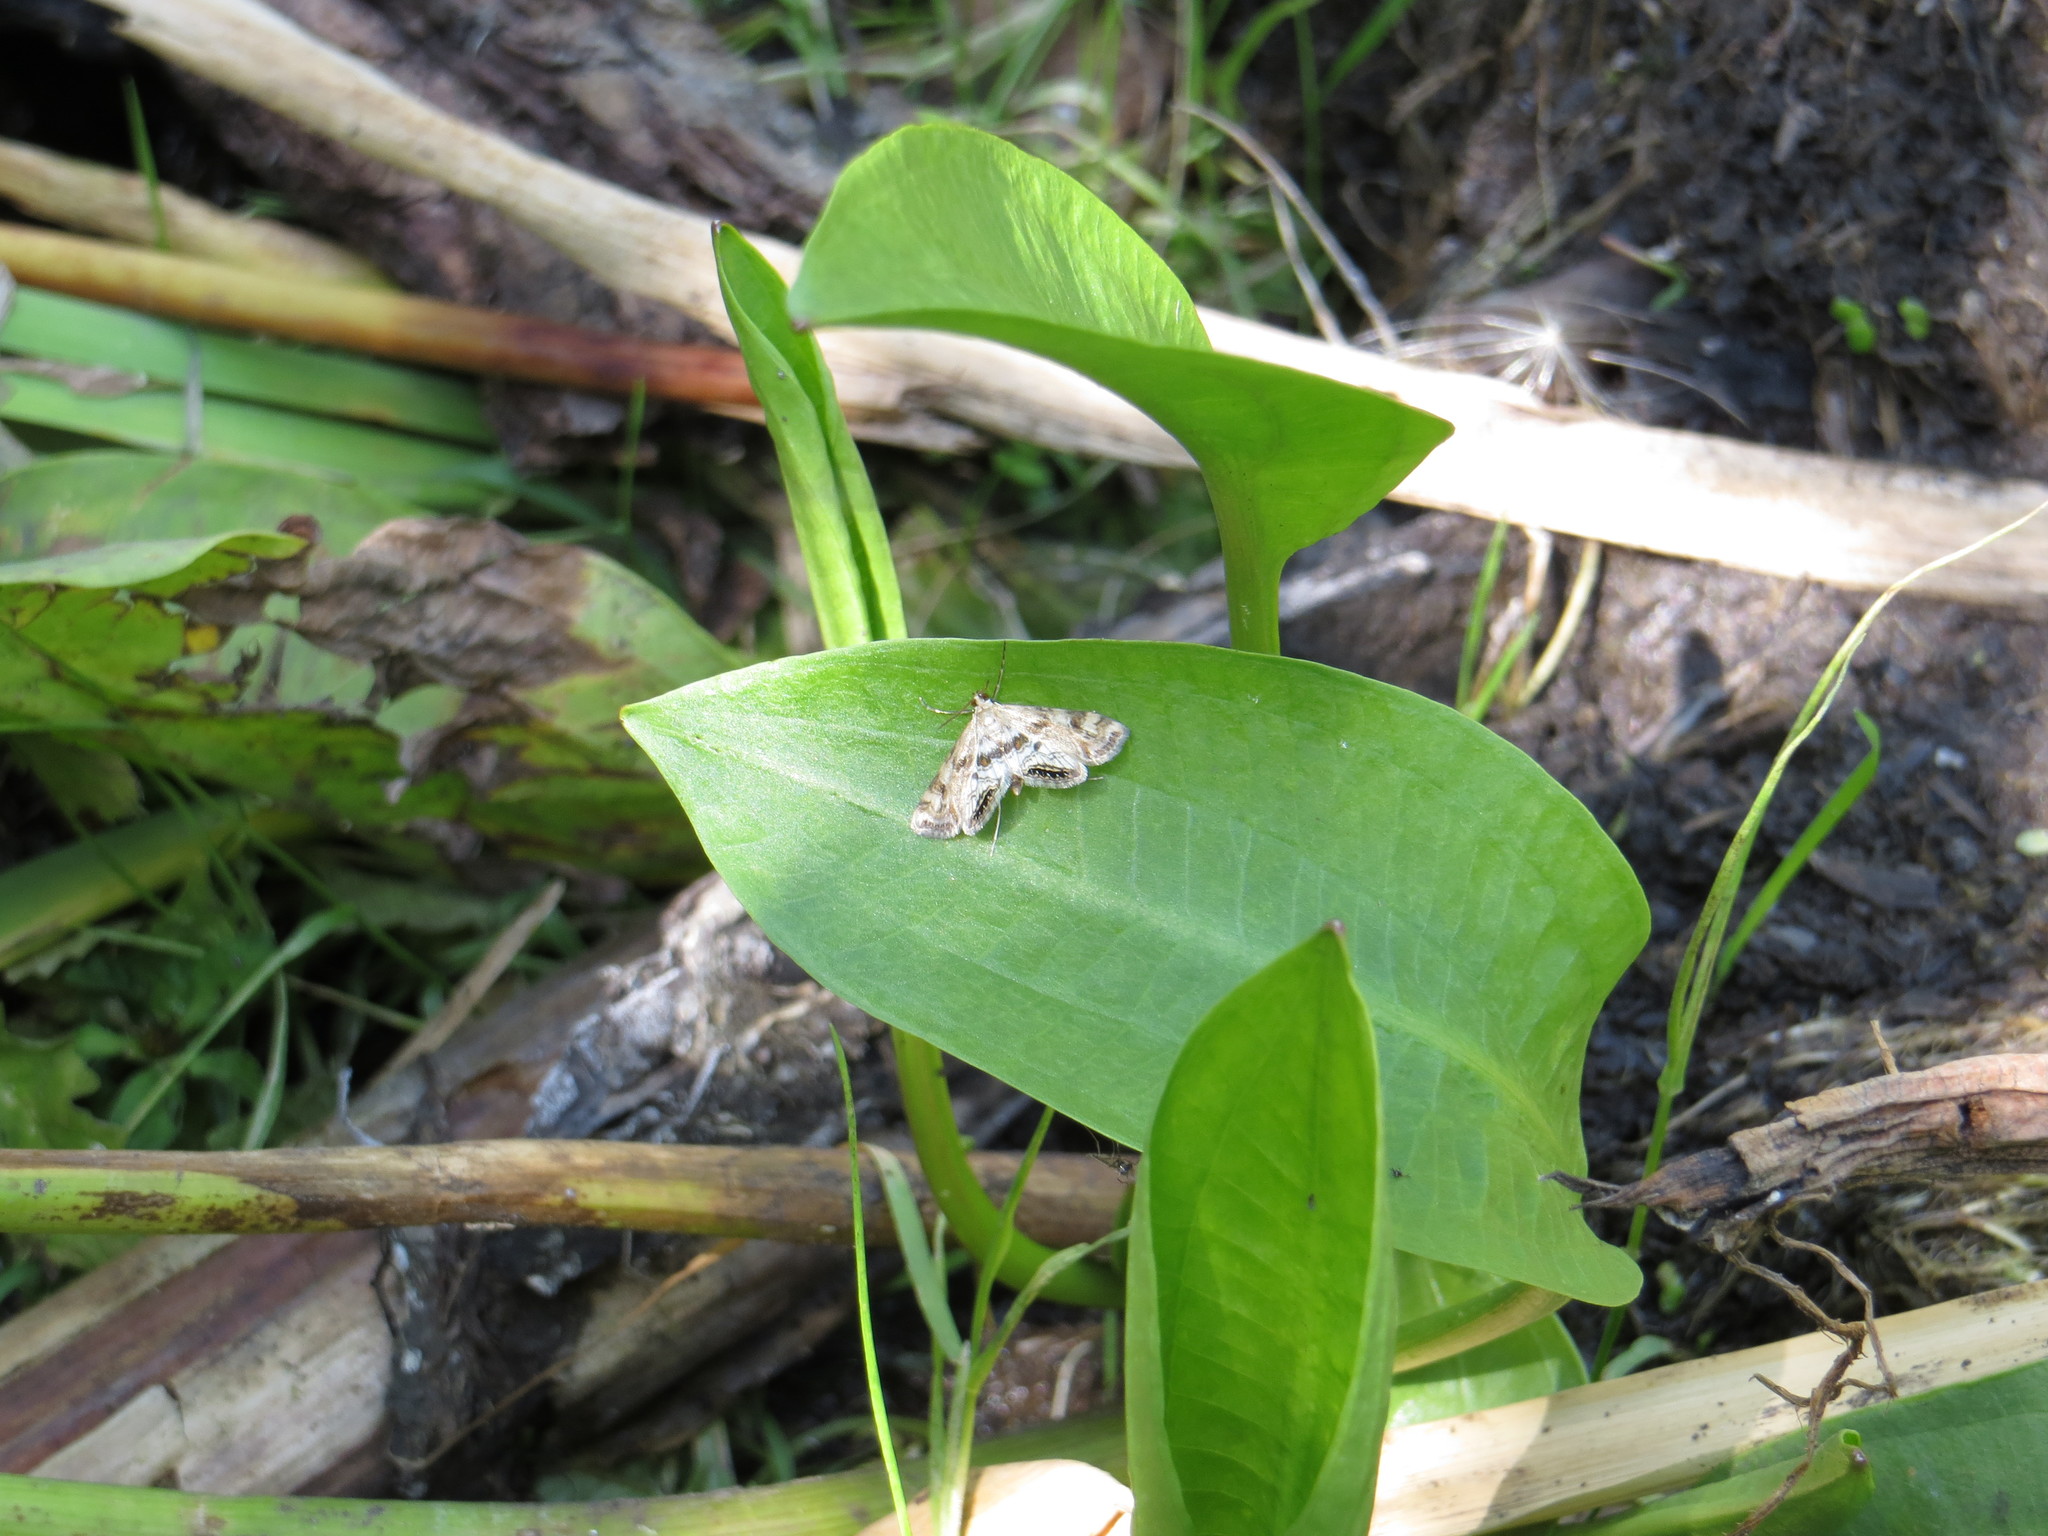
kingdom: Animalia
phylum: Arthropoda
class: Insecta
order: Lepidoptera
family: Crambidae
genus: Cataclysta
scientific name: Cataclysta lemnata
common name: Small china-mark
